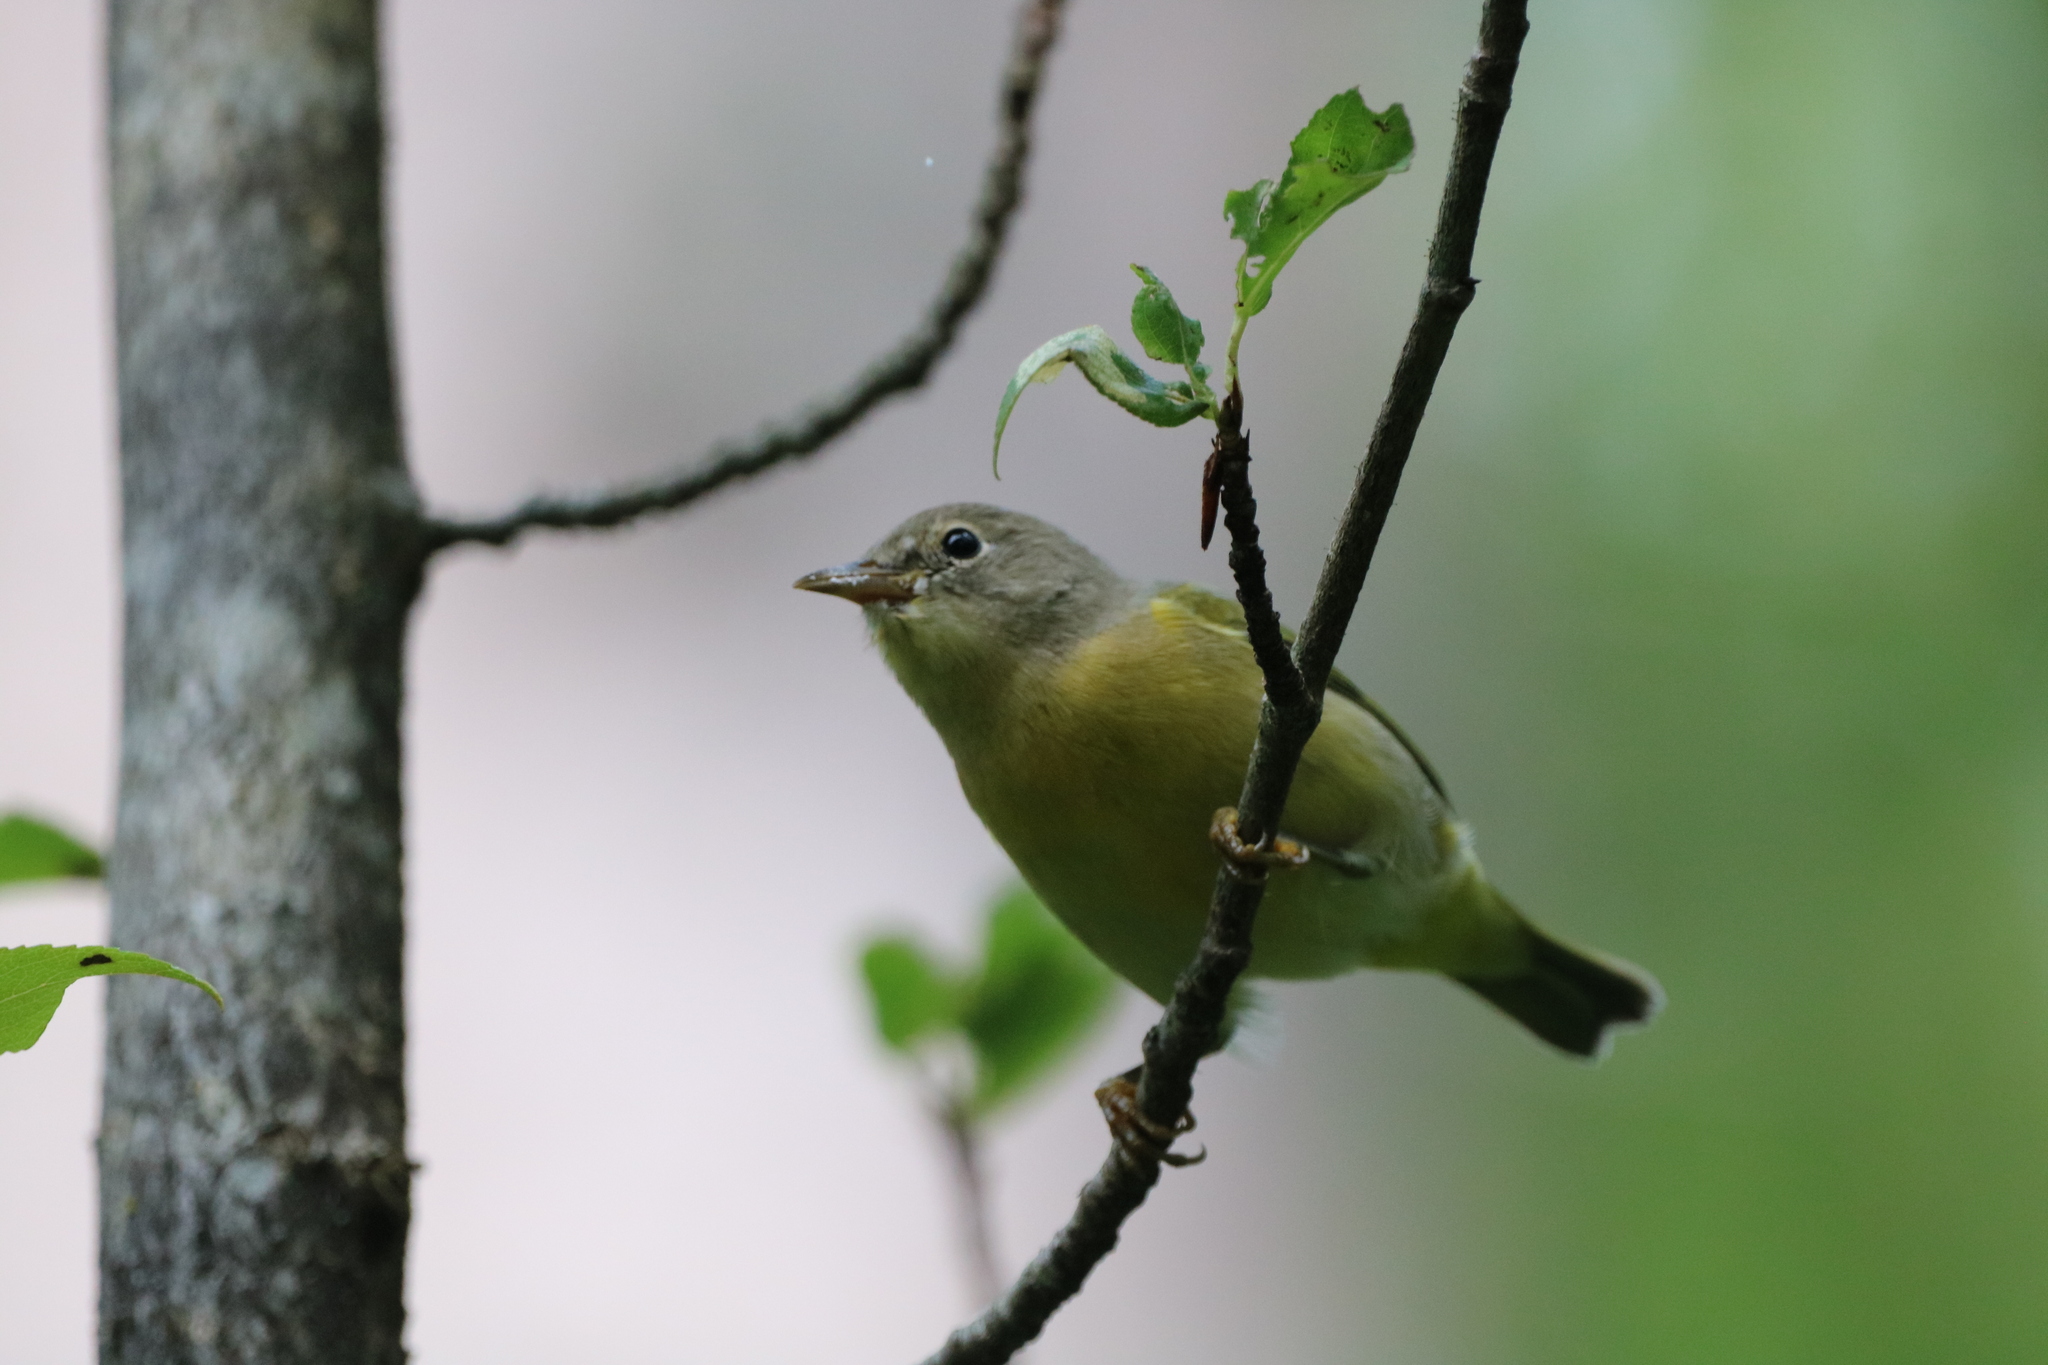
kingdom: Animalia
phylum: Chordata
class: Aves
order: Passeriformes
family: Parulidae
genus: Leiothlypis
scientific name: Leiothlypis ruficapilla
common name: Nashville warbler
